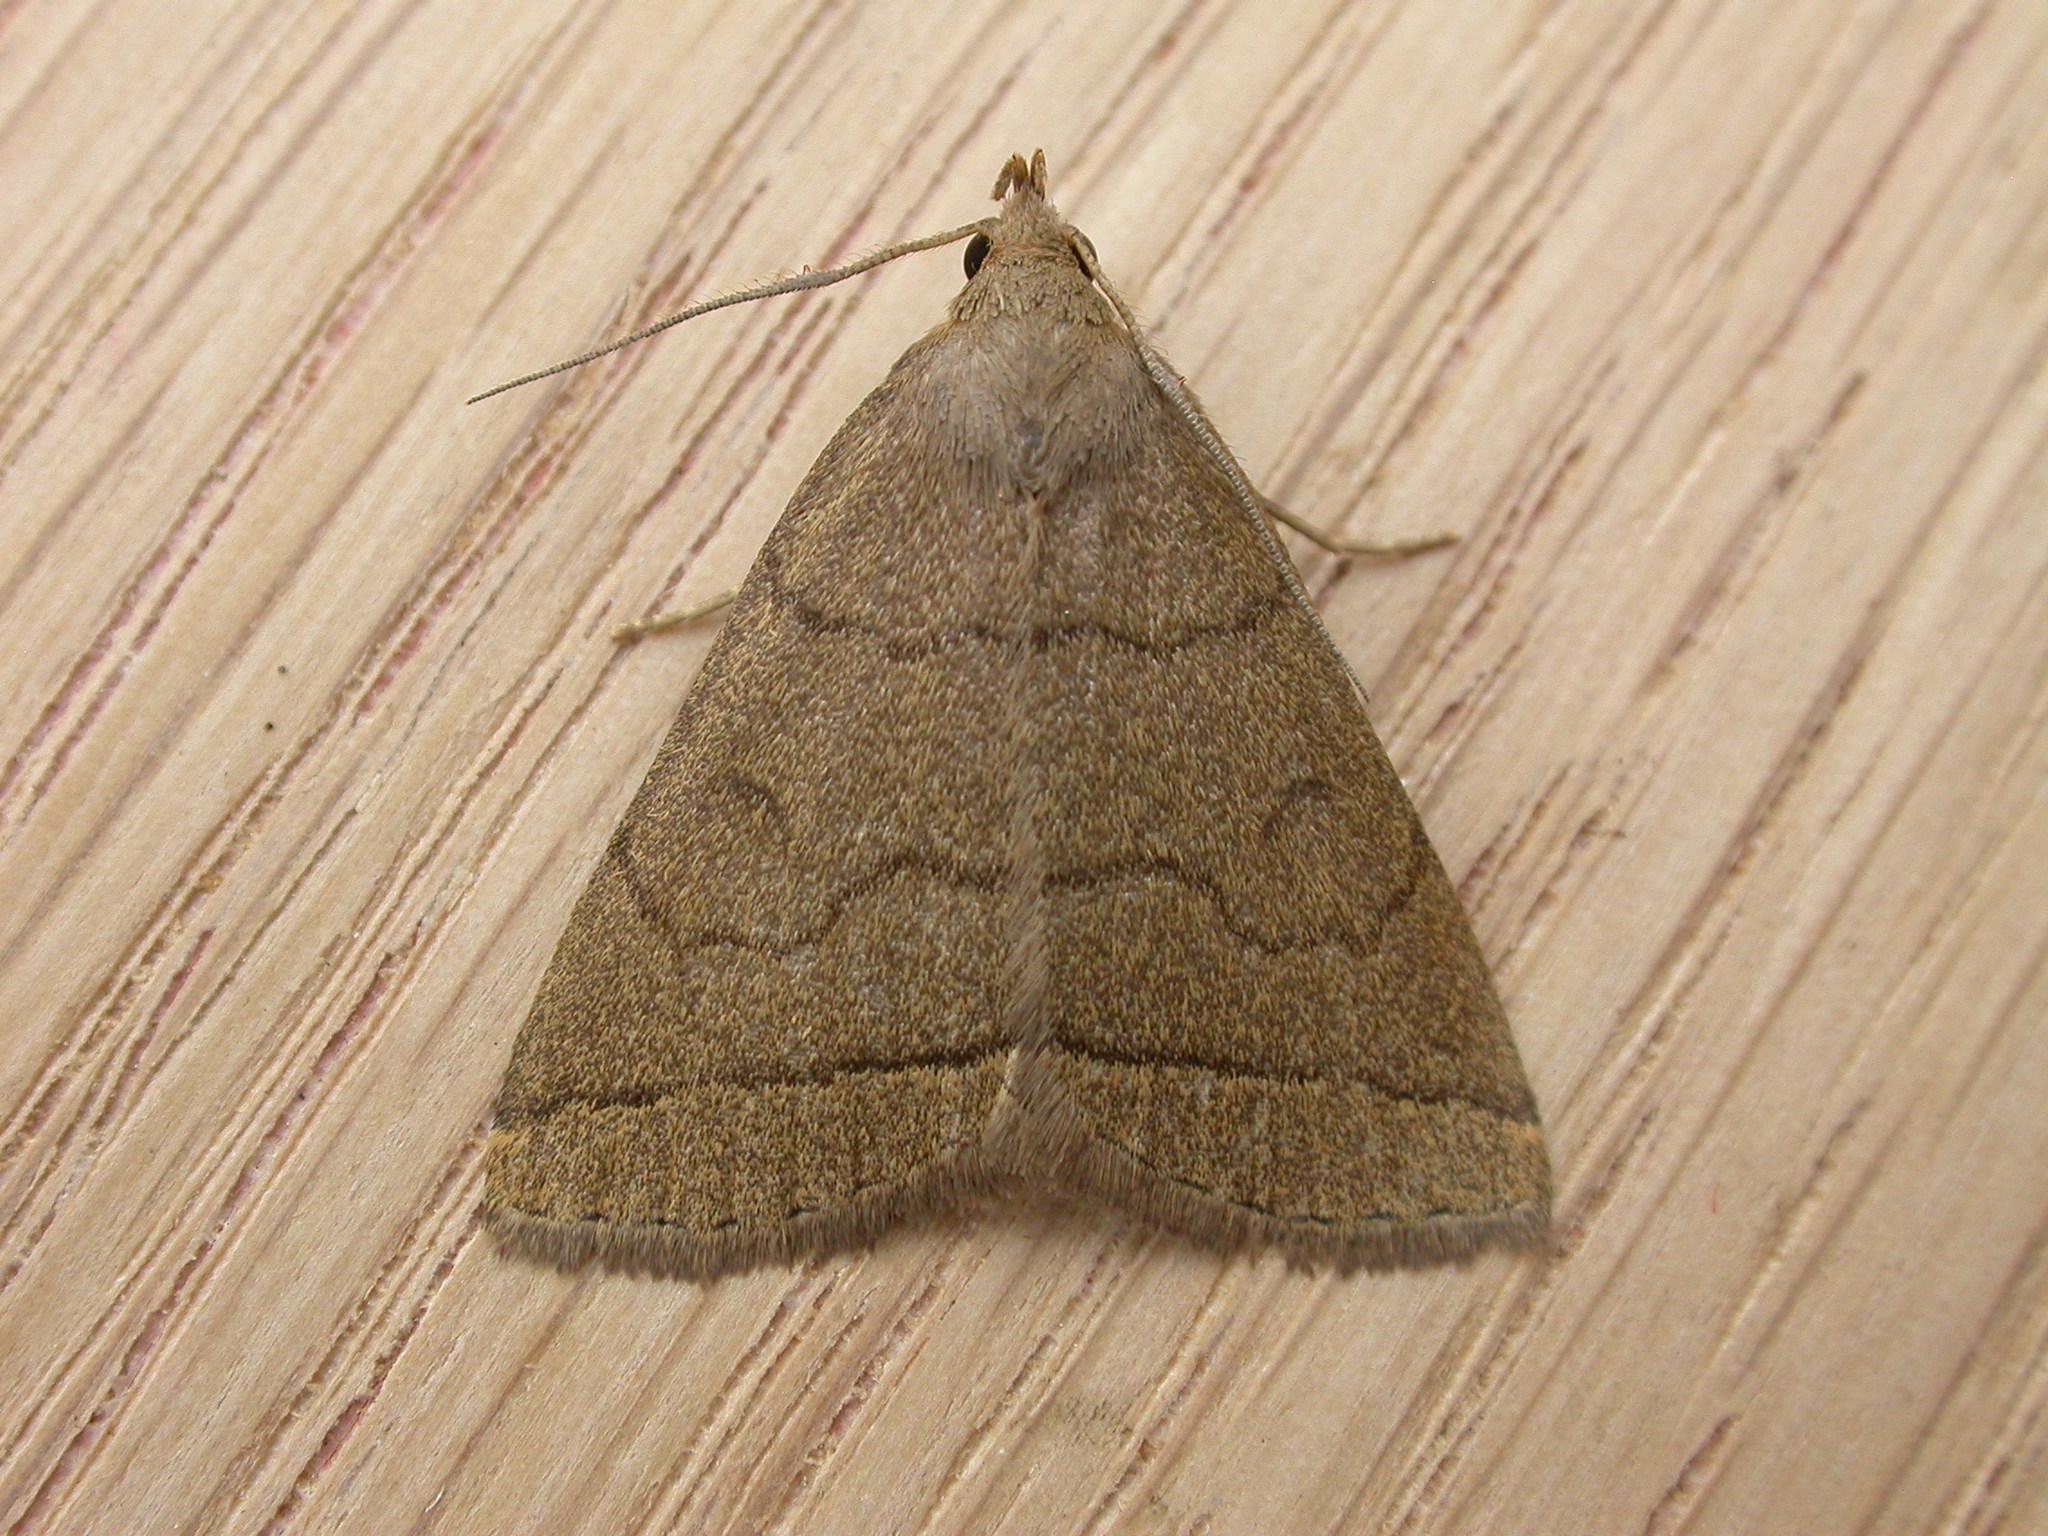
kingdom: Animalia
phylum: Arthropoda
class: Insecta
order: Lepidoptera
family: Erebidae
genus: Herminia
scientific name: Herminia tarsipennalis
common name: Fan-foot
